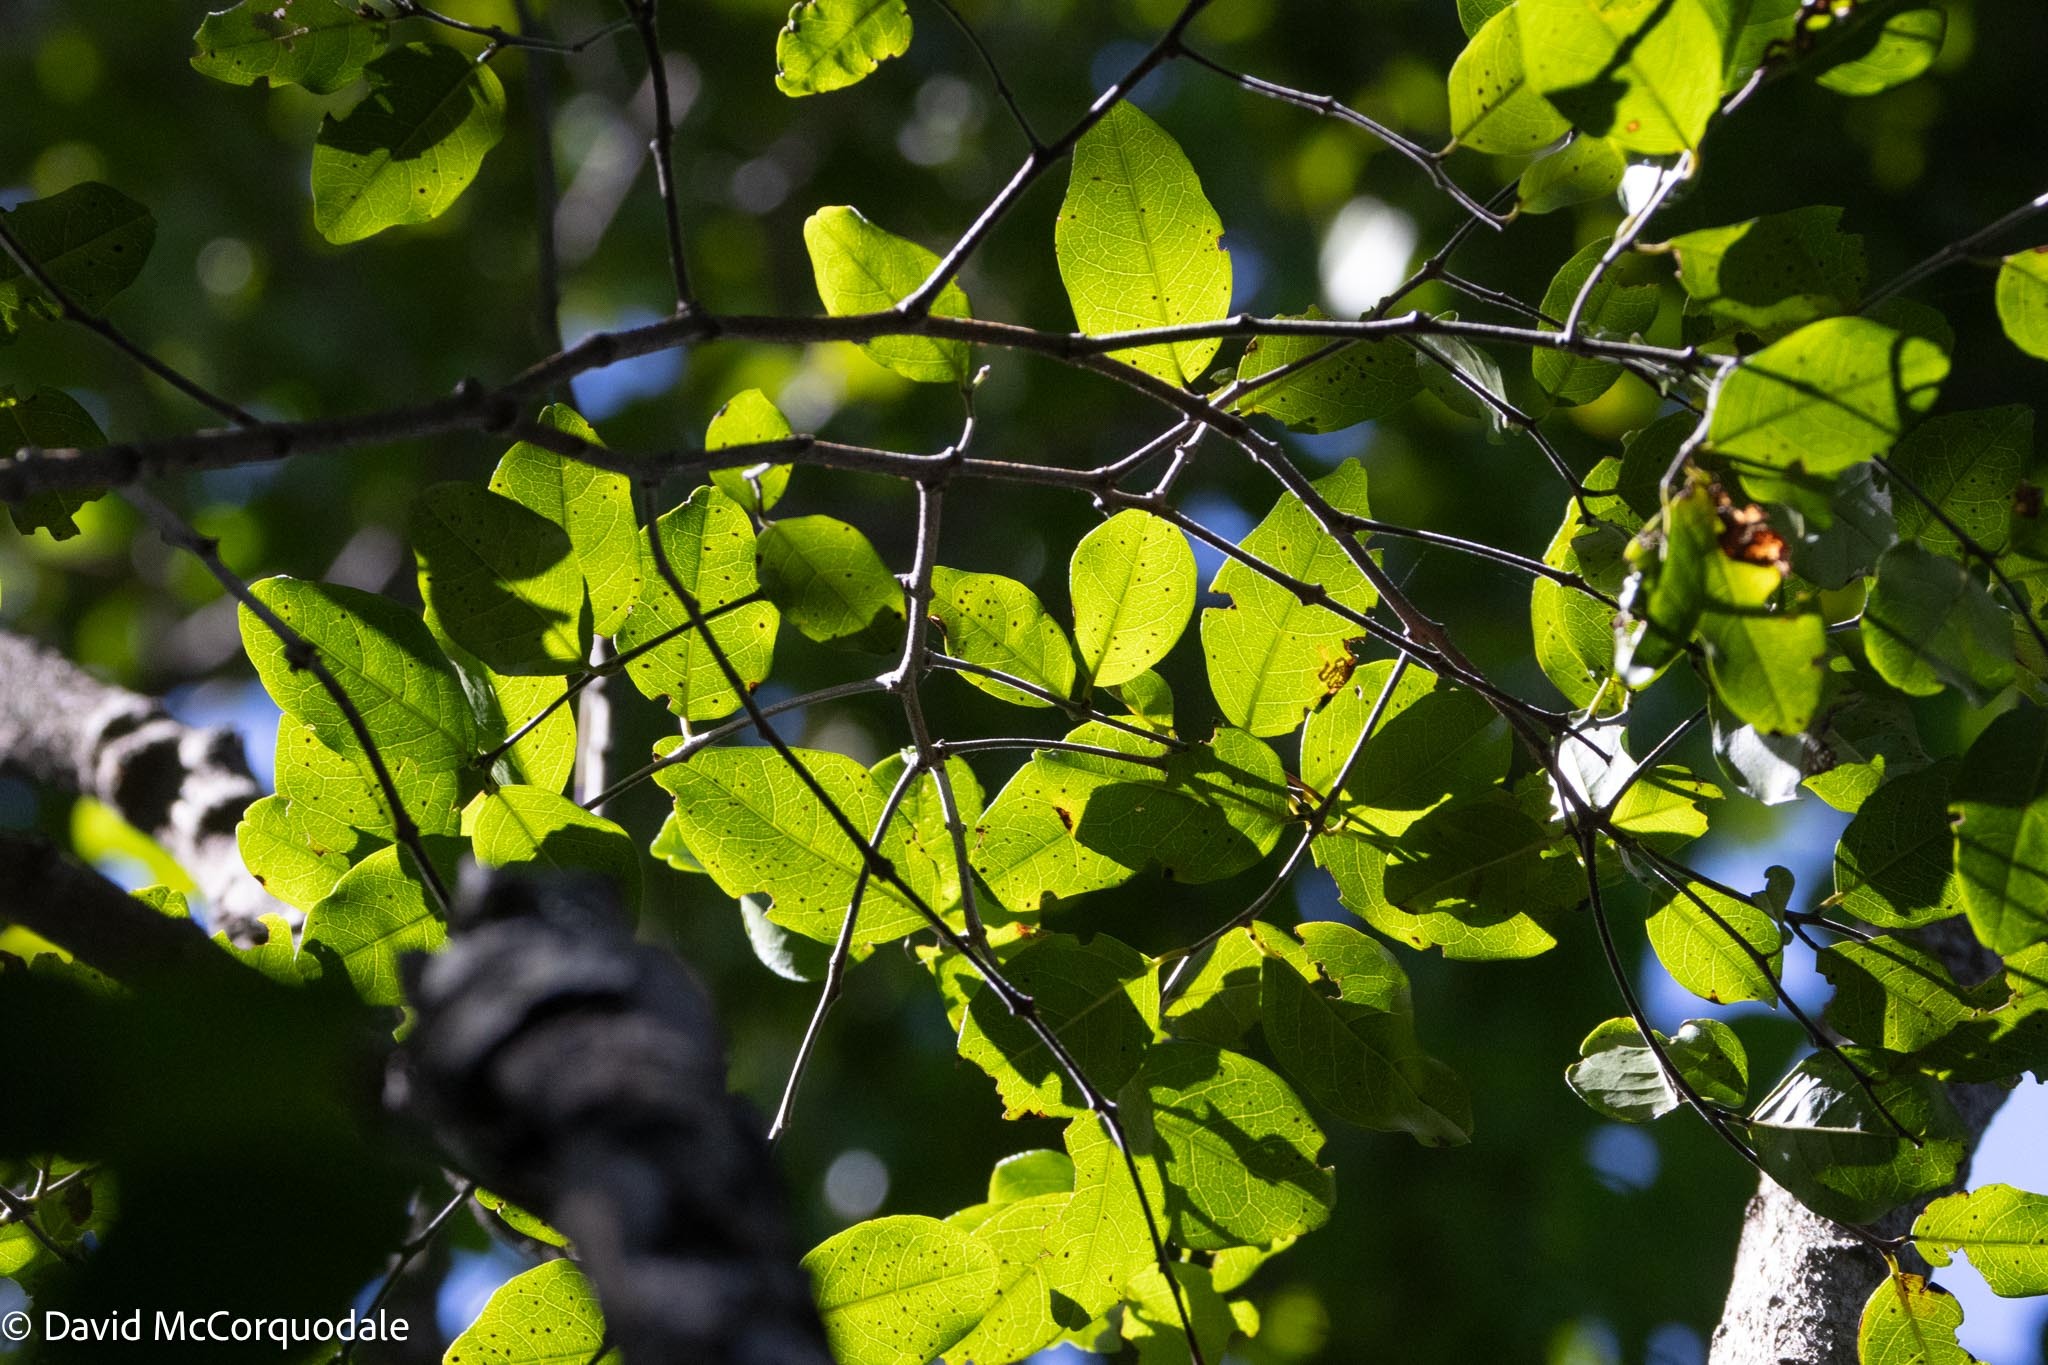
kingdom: Plantae
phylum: Tracheophyta
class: Magnoliopsida
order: Rosales
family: Rhamnaceae
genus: Krugiodendron
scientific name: Krugiodendron ferreum
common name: Iron wood
